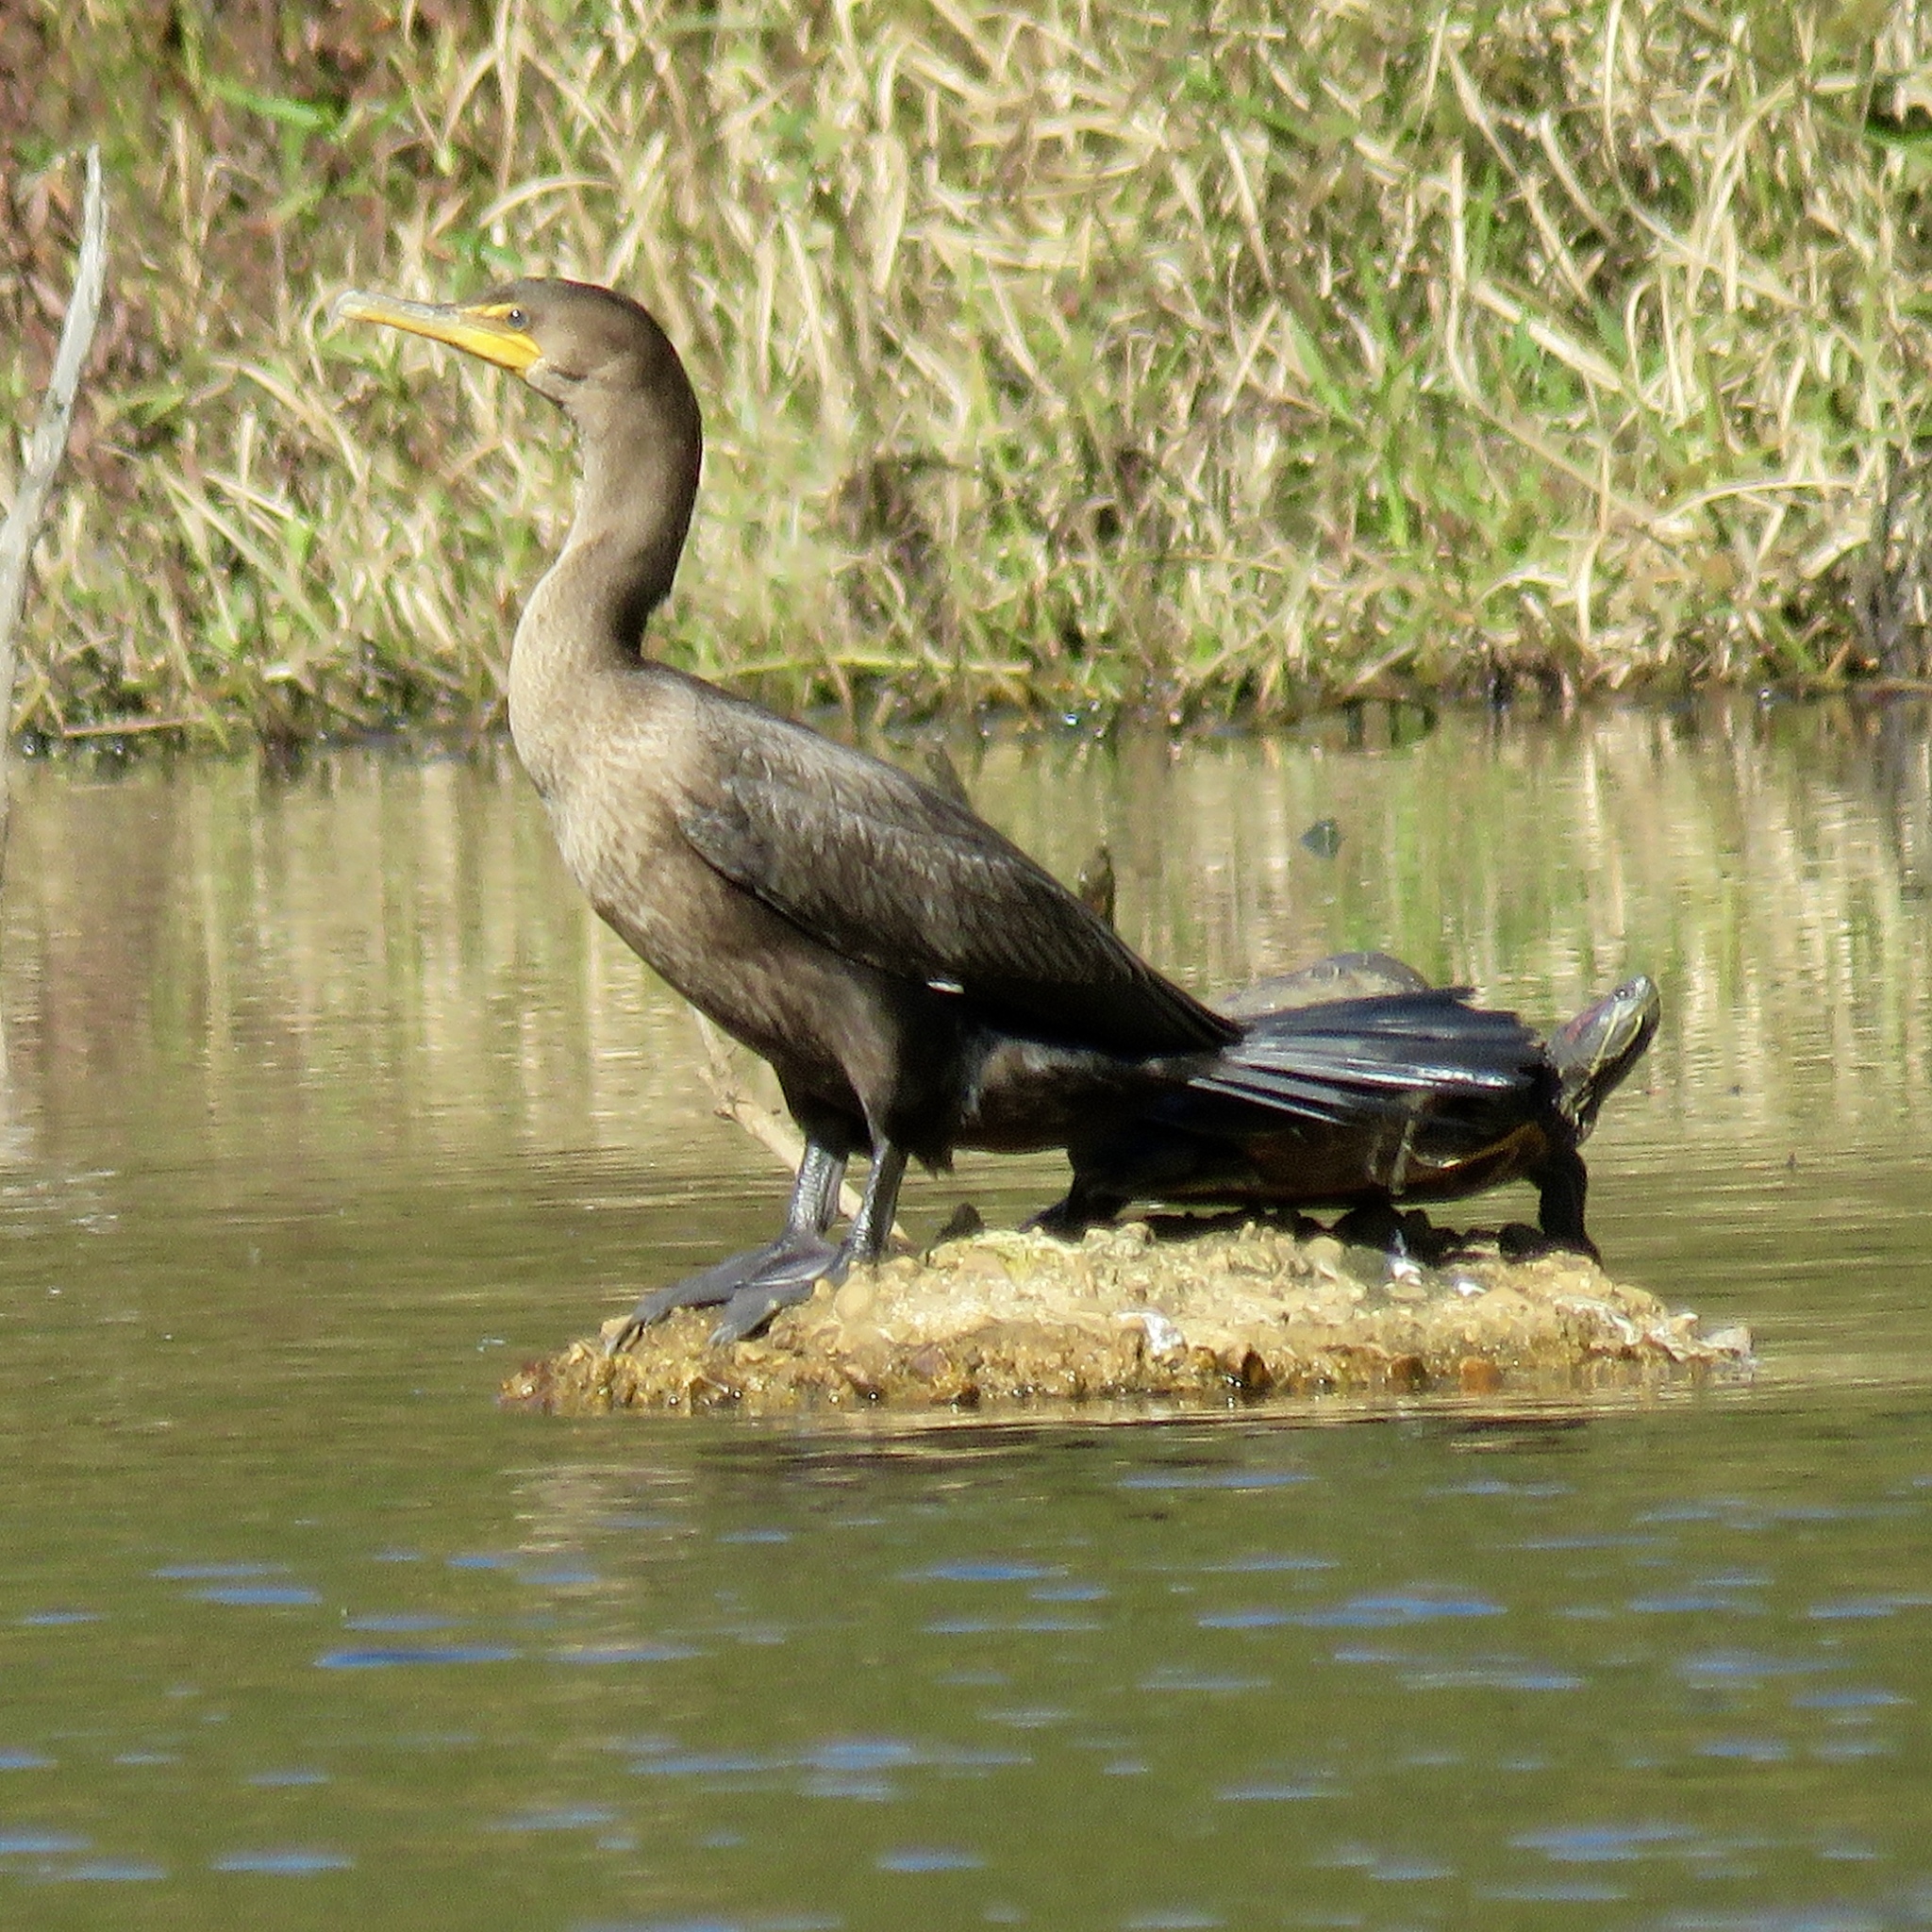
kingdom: Animalia
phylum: Chordata
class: Aves
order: Suliformes
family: Phalacrocoracidae
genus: Phalacrocorax
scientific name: Phalacrocorax auritus
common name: Double-crested cormorant
